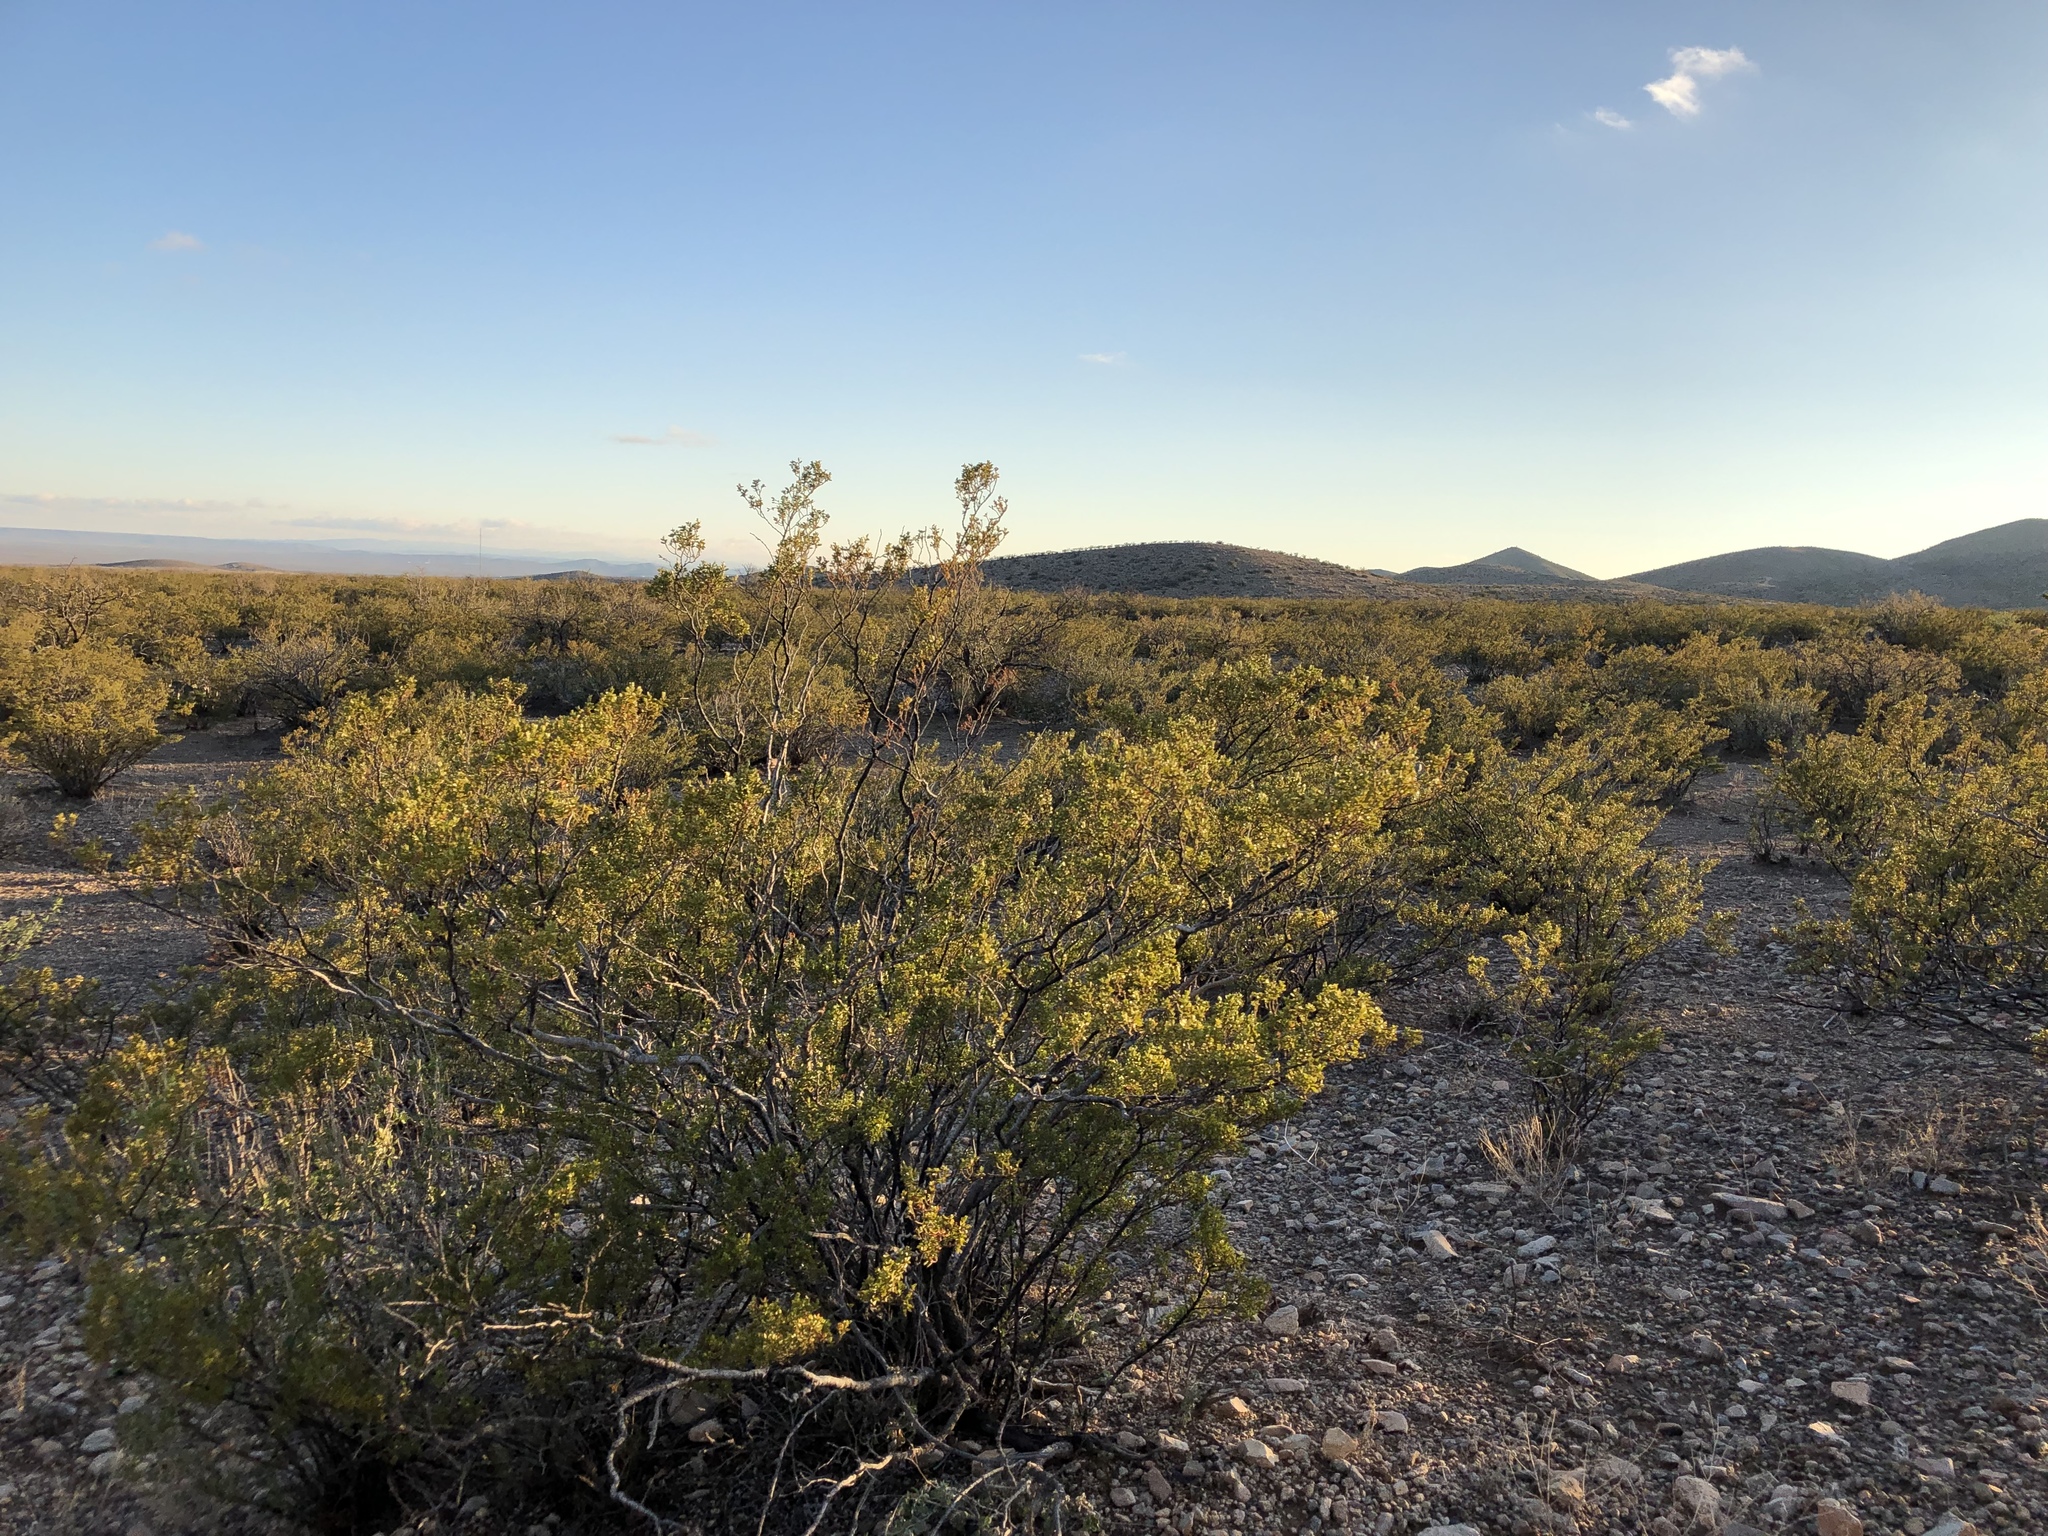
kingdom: Plantae
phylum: Tracheophyta
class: Magnoliopsida
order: Zygophyllales
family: Zygophyllaceae
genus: Larrea
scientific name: Larrea tridentata
